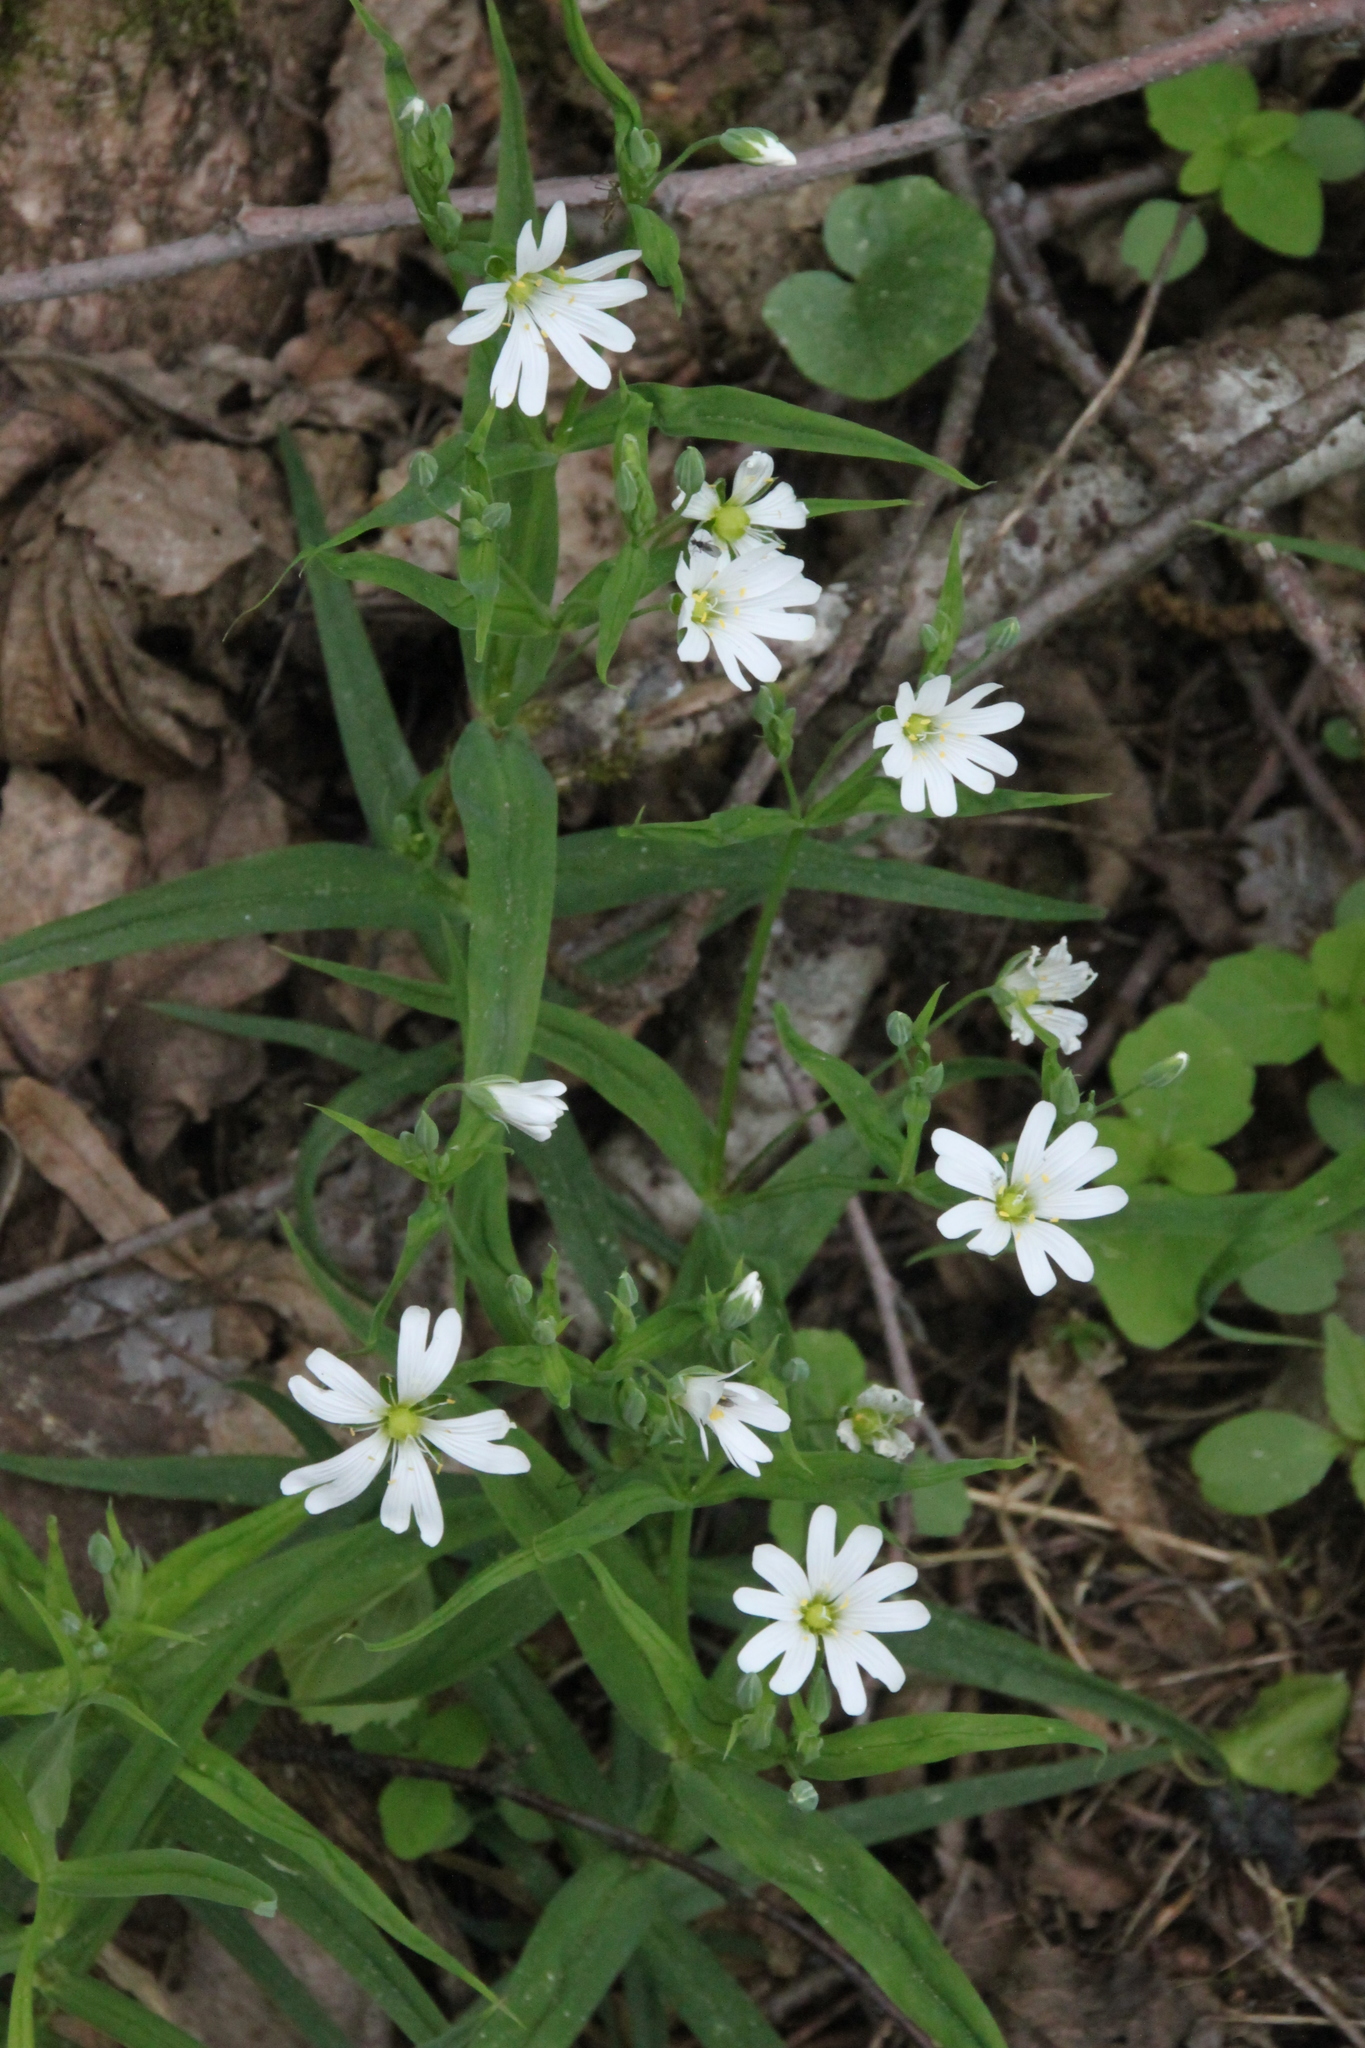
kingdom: Plantae
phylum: Tracheophyta
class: Magnoliopsida
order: Caryophyllales
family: Caryophyllaceae
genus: Rabelera
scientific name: Rabelera holostea
